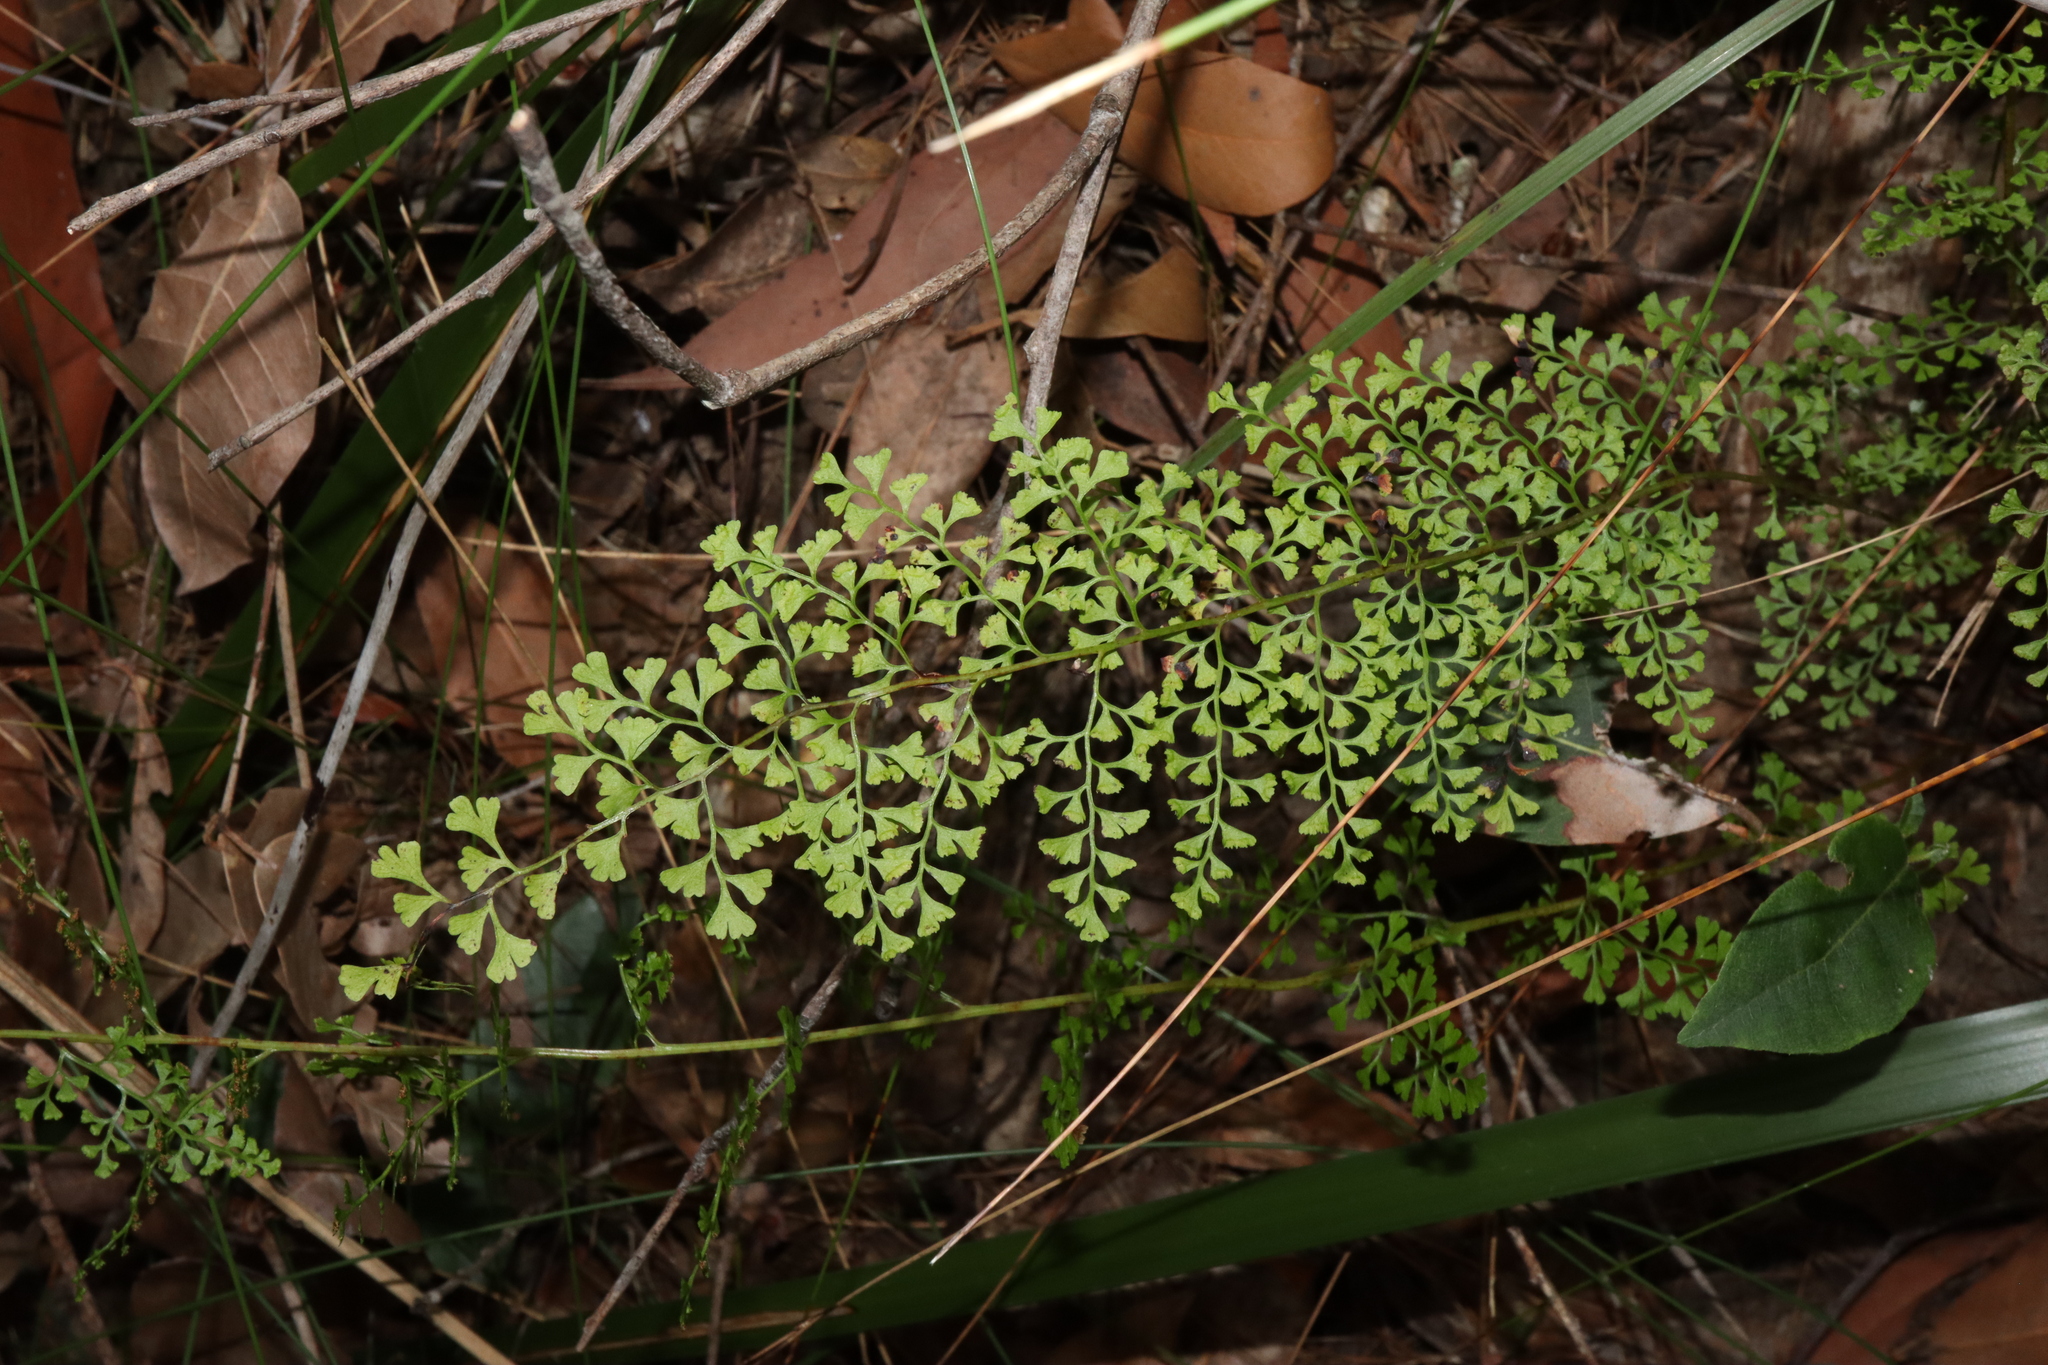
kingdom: Plantae
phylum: Tracheophyta
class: Polypodiopsida
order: Polypodiales
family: Lindsaeaceae
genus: Lindsaea
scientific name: Lindsaea microphylla
